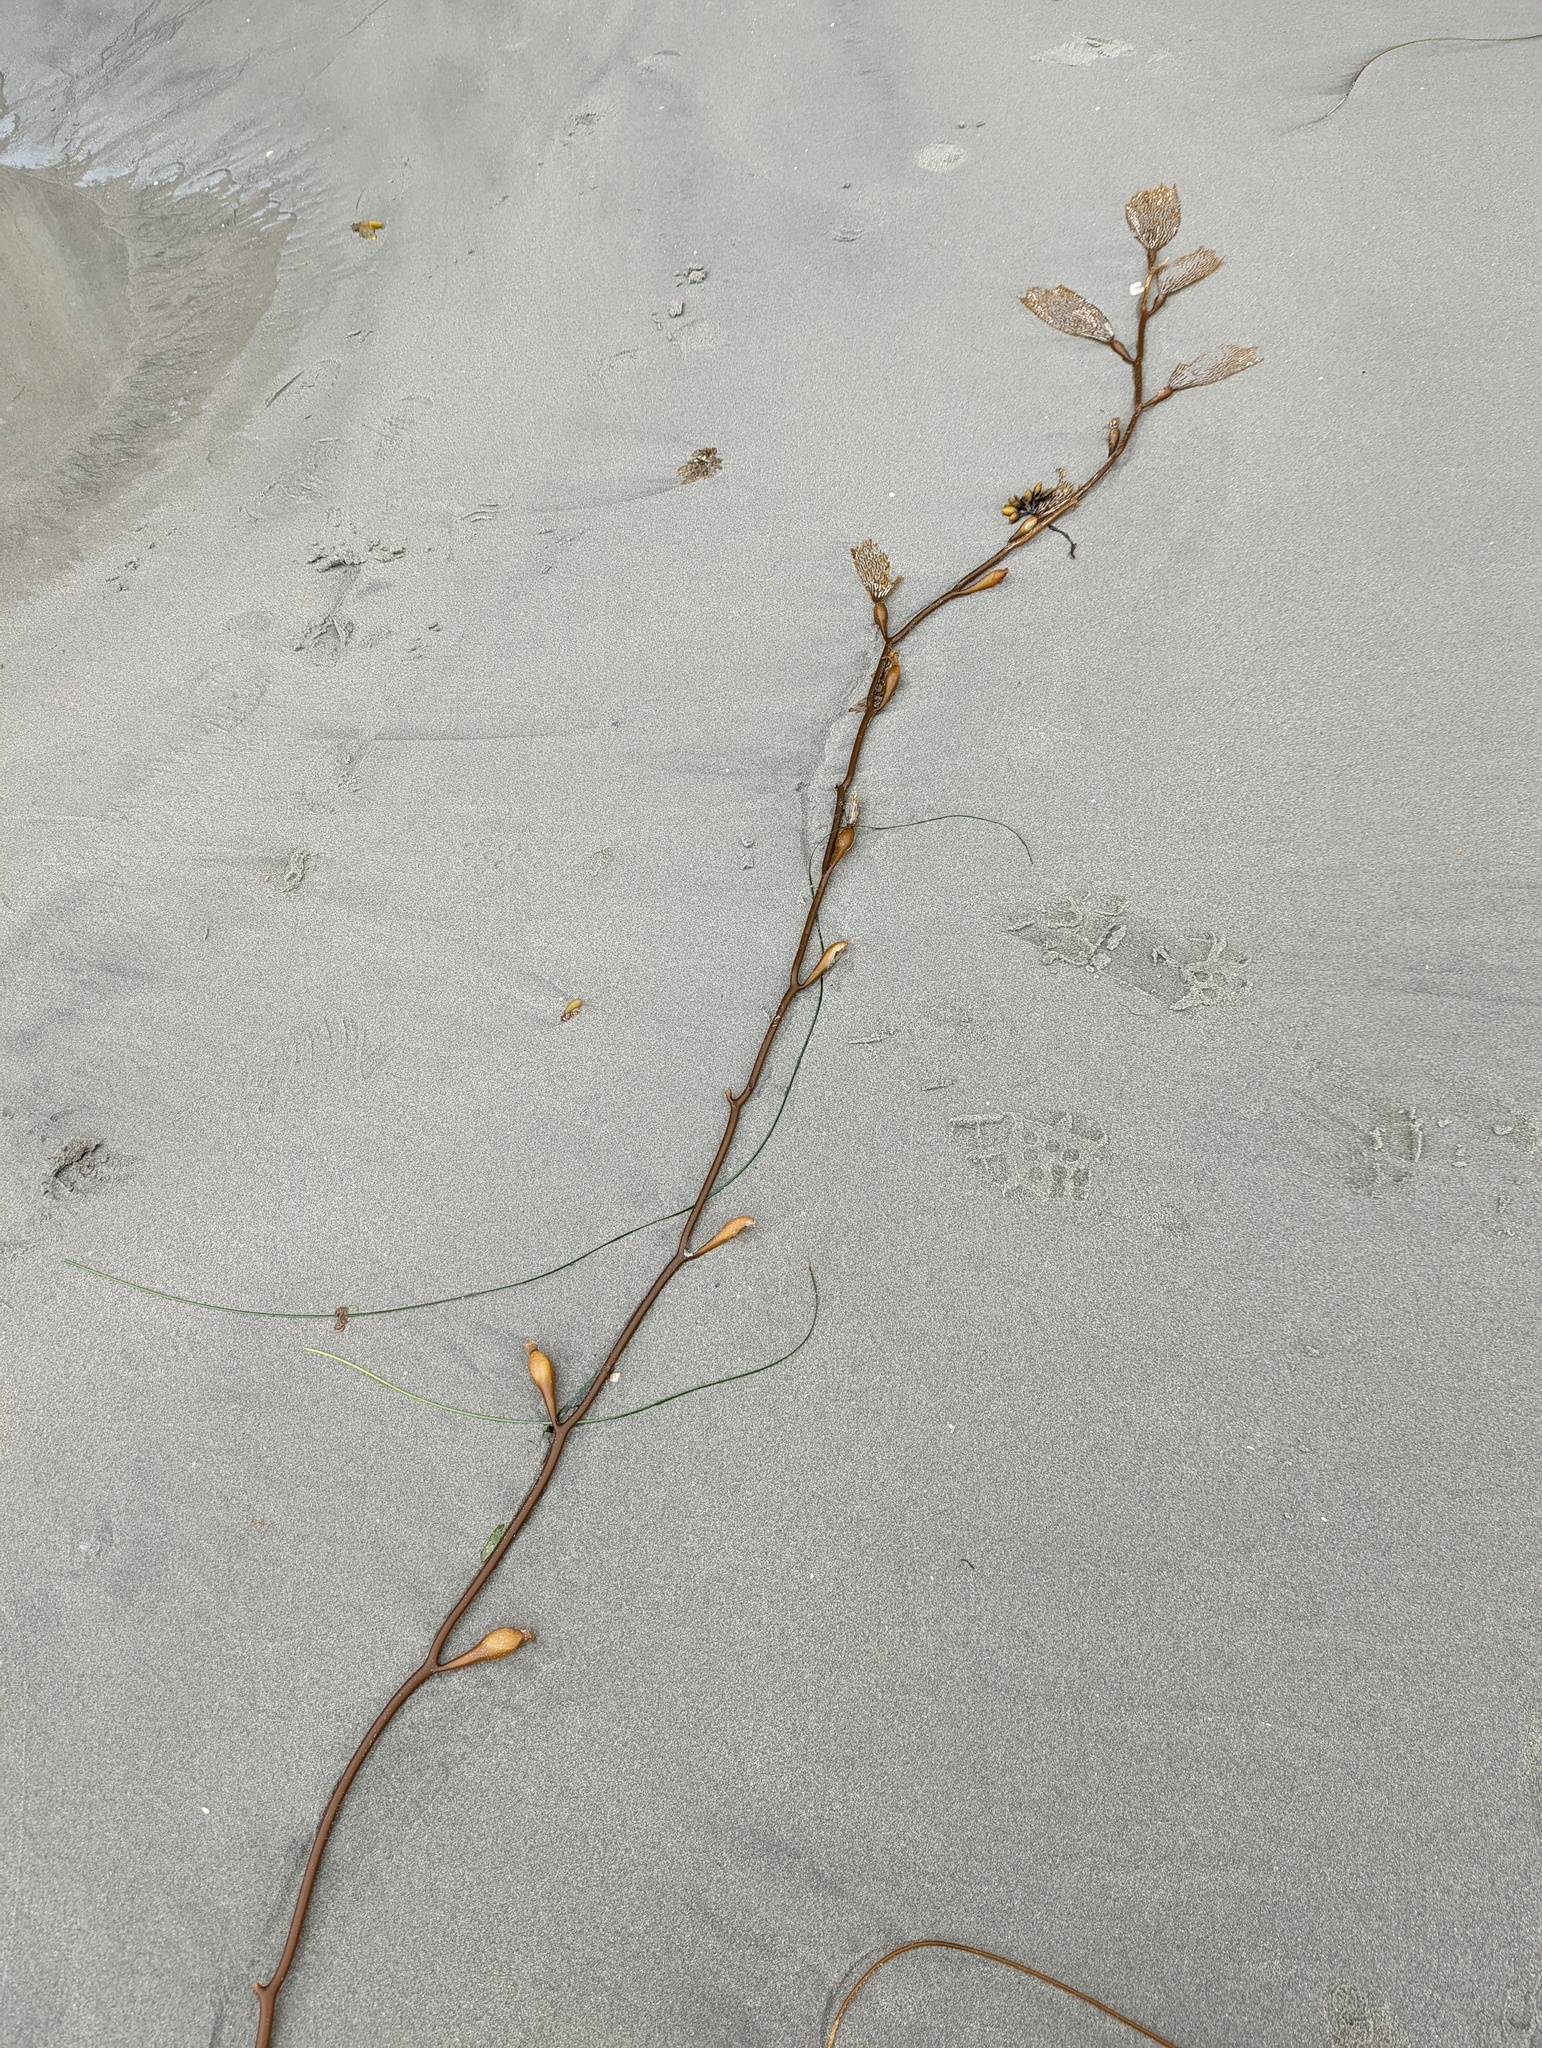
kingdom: Chromista
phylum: Ochrophyta
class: Phaeophyceae
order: Laminariales
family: Laminariaceae
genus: Macrocystis
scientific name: Macrocystis pyrifera
